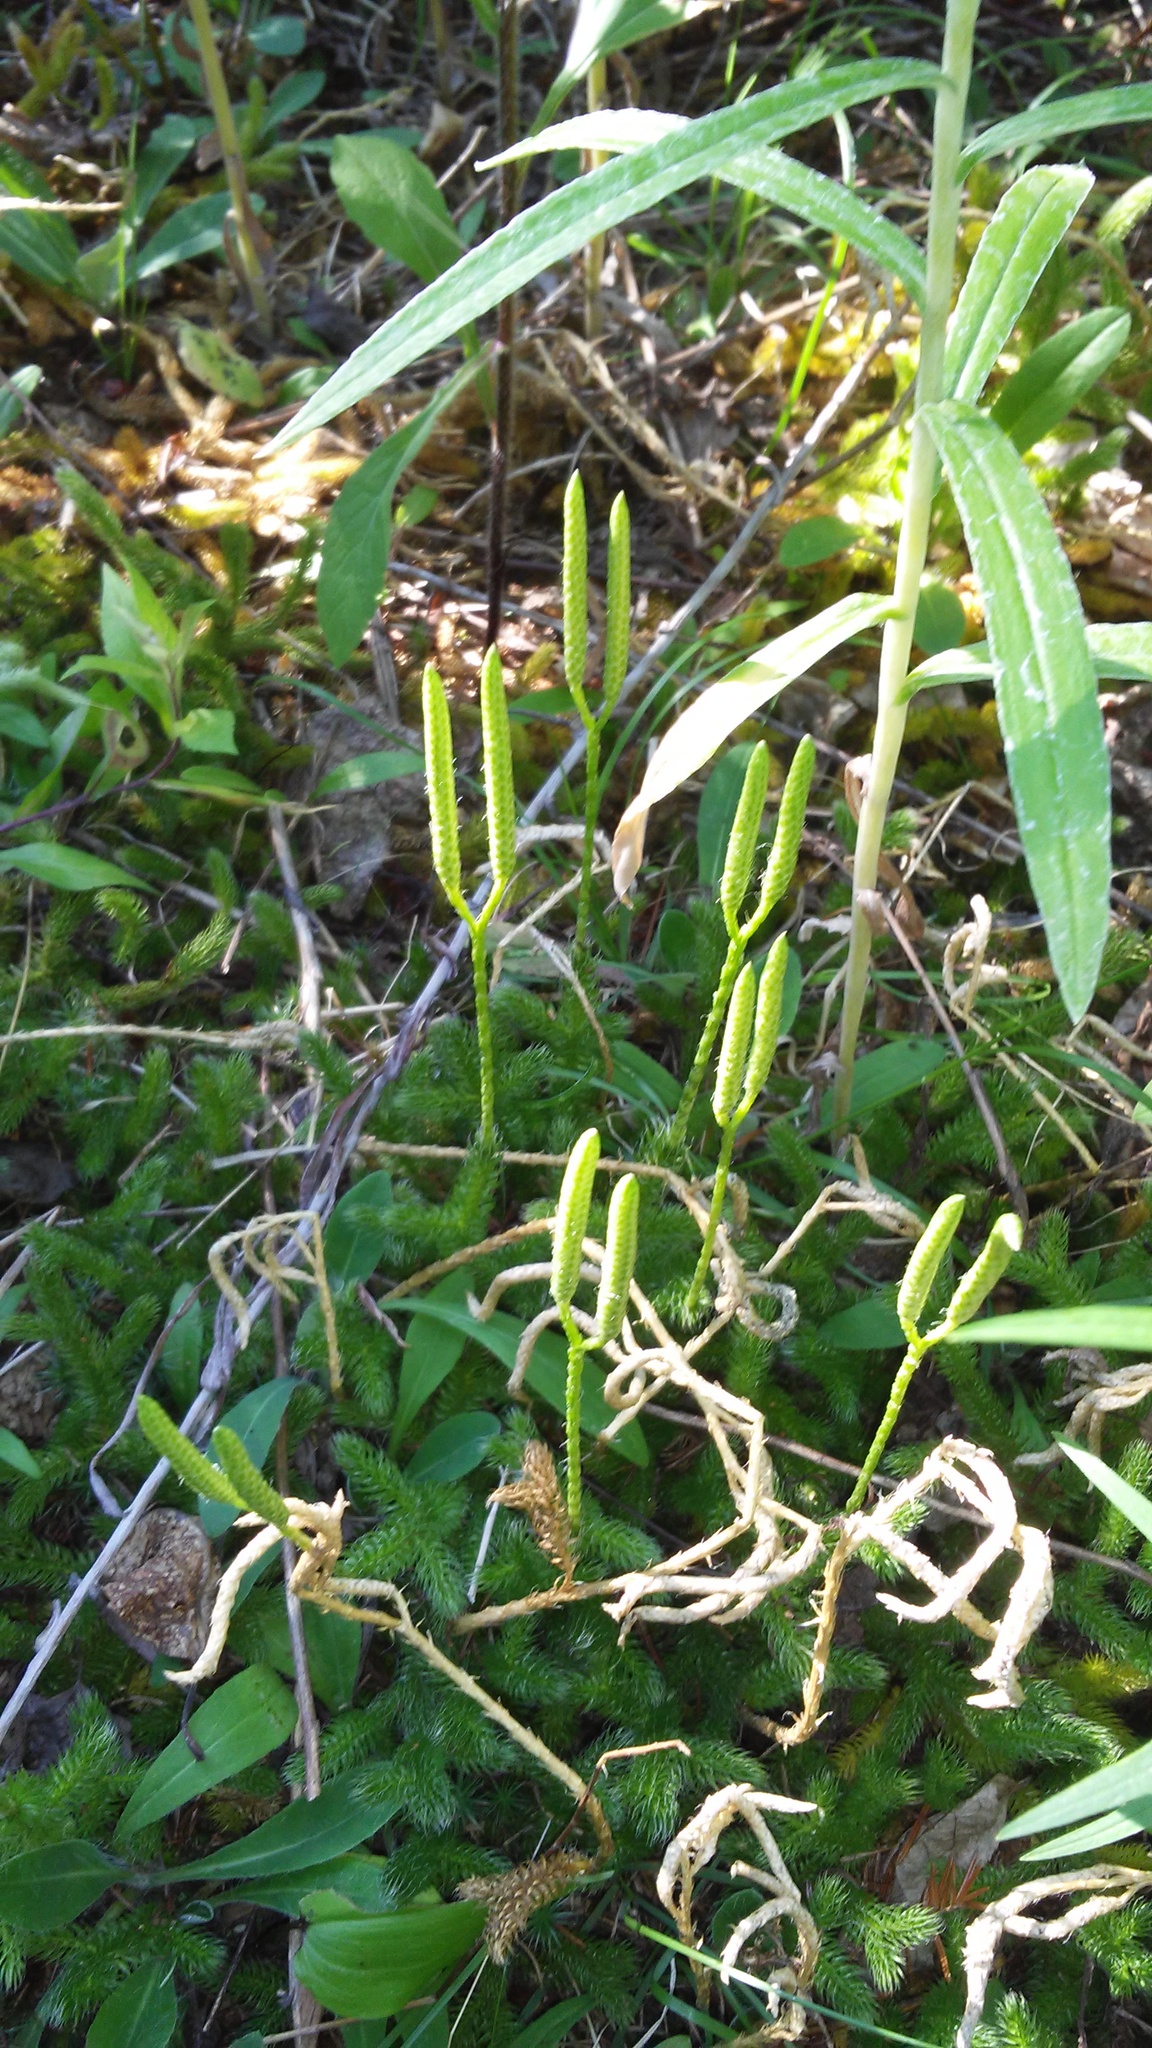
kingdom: Plantae
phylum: Tracheophyta
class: Lycopodiopsida
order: Lycopodiales
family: Lycopodiaceae
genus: Lycopodium
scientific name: Lycopodium clavatum
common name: Stag's-horn clubmoss
